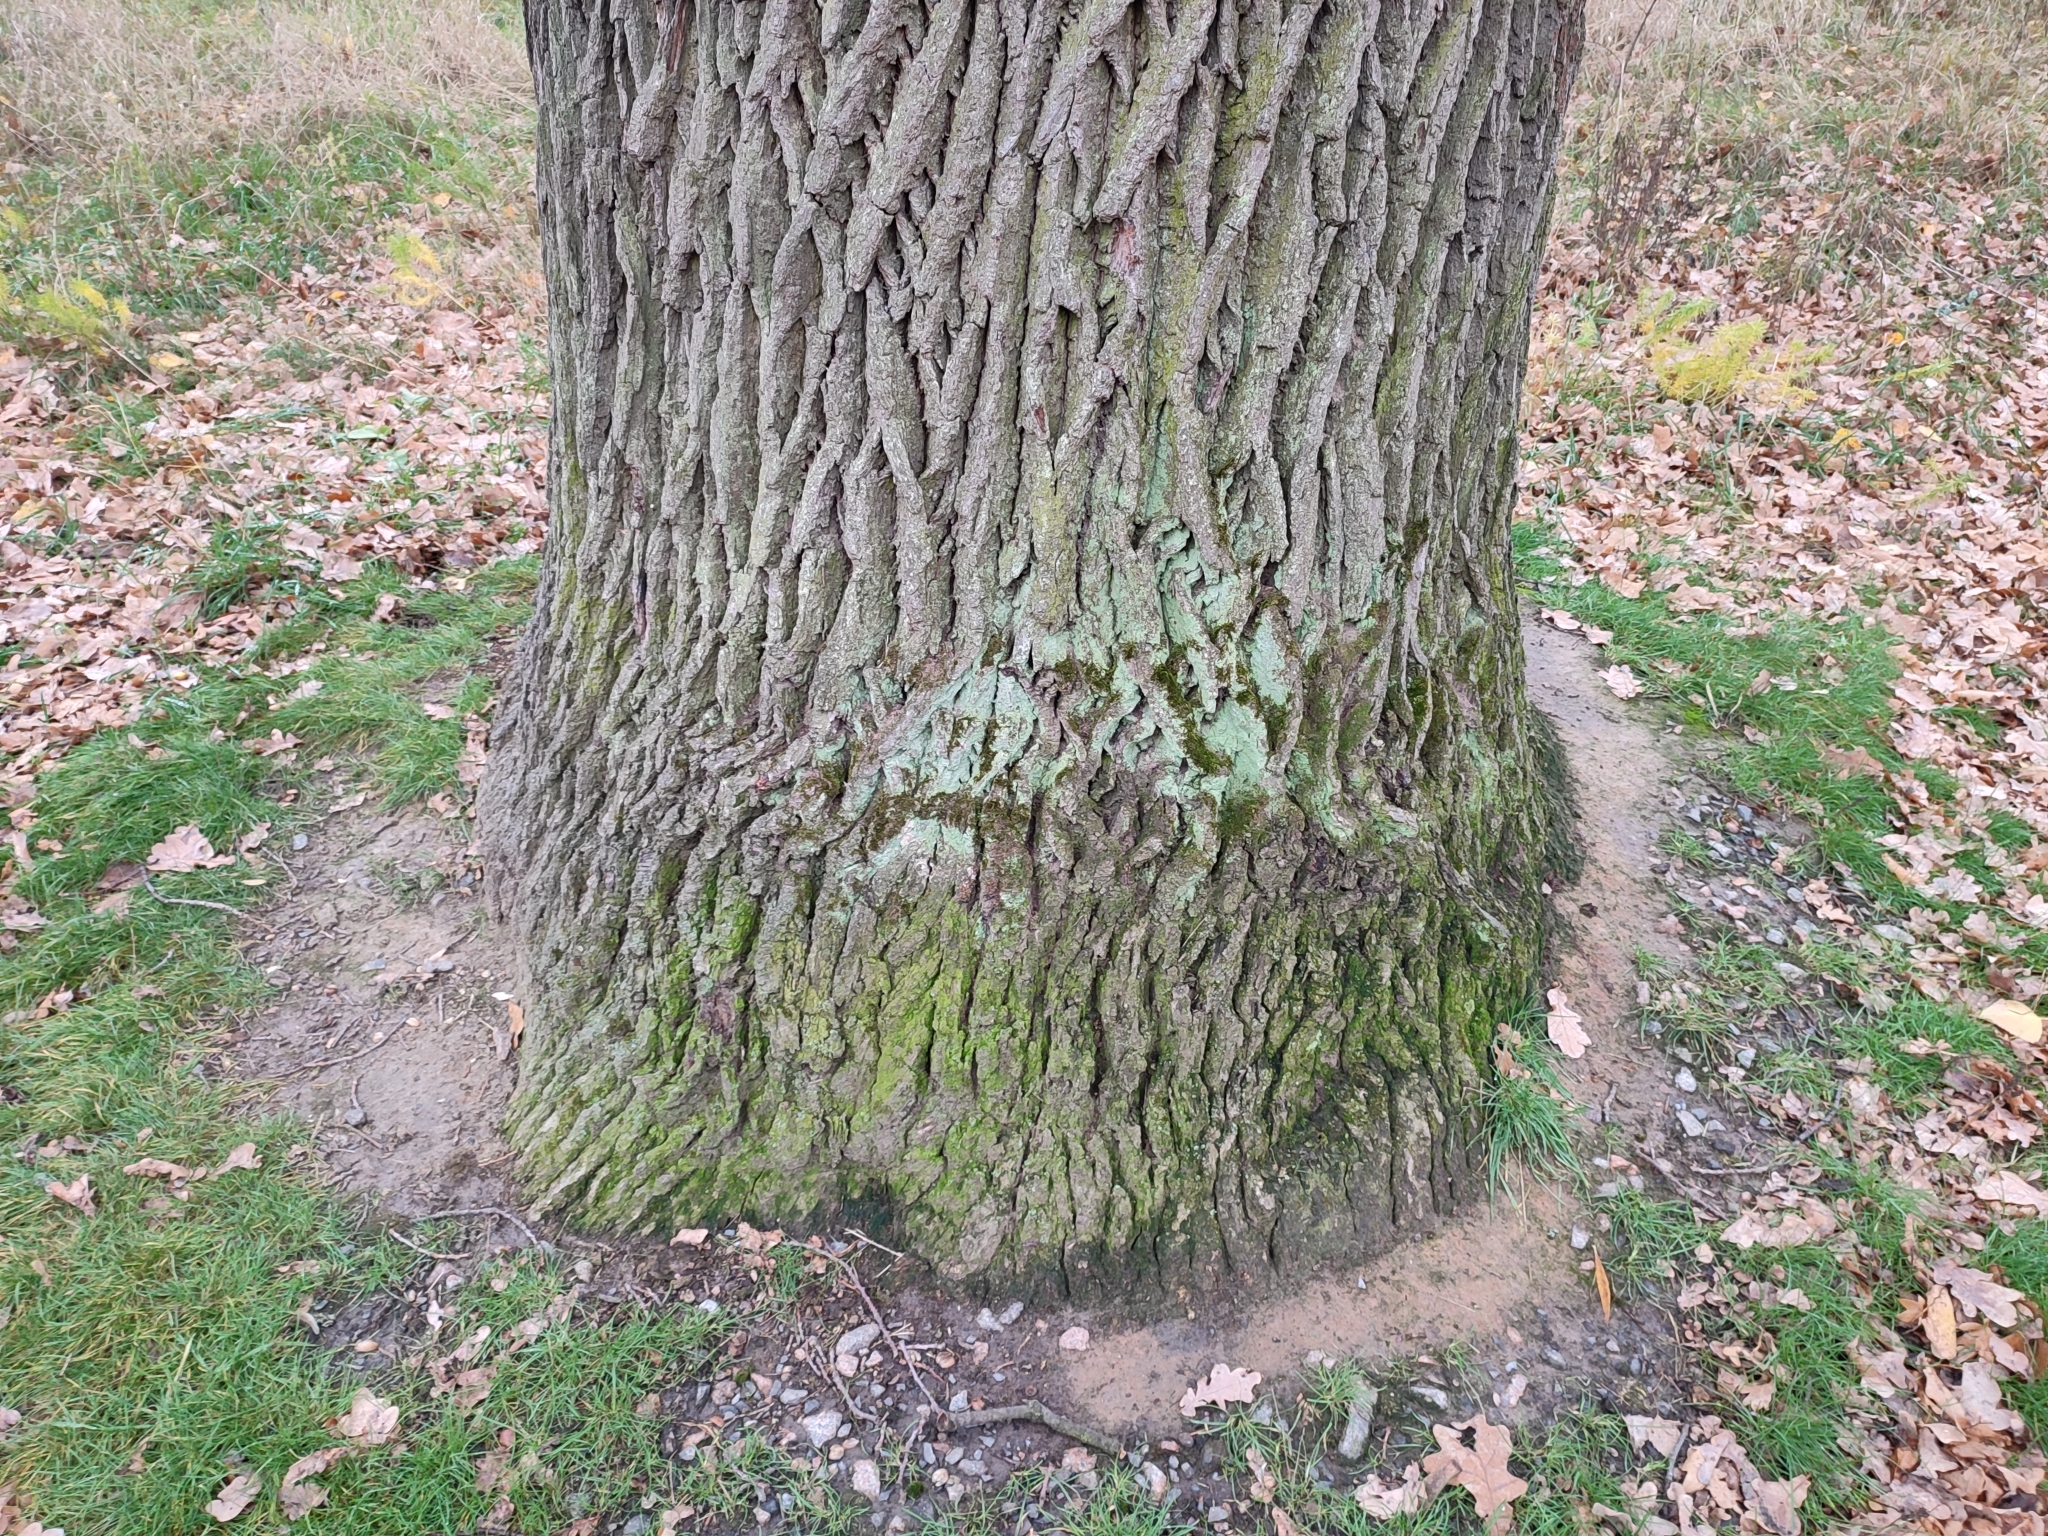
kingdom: Plantae
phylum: Tracheophyta
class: Magnoliopsida
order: Fagales
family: Fagaceae
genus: Quercus
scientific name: Quercus robur
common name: Pedunculate oak
